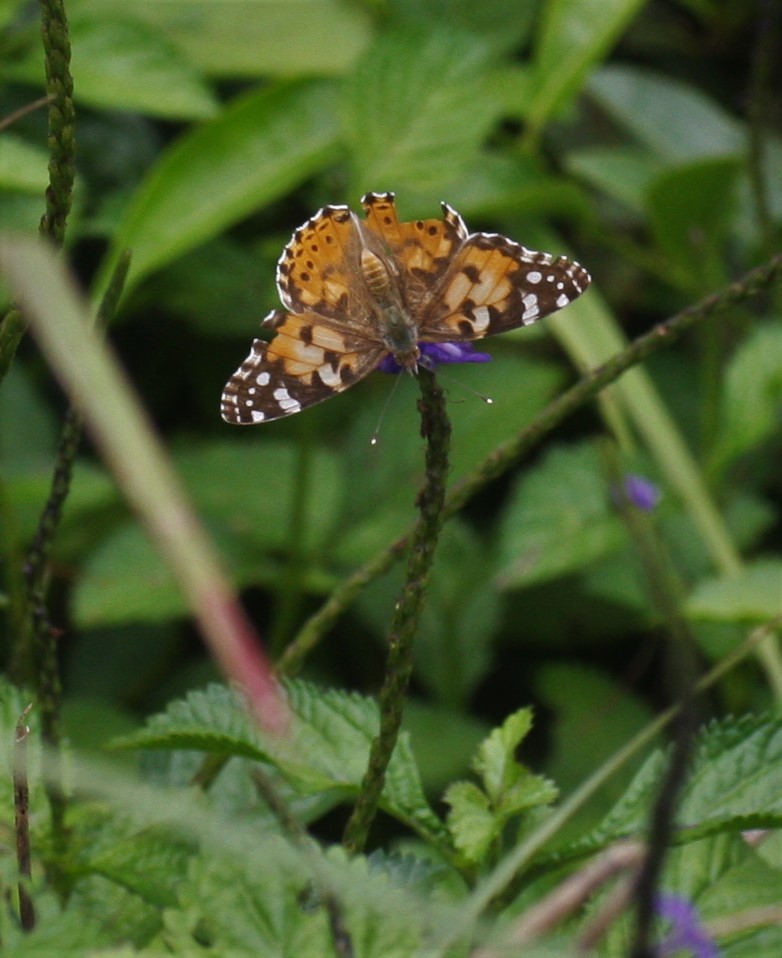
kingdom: Animalia
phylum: Arthropoda
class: Insecta
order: Lepidoptera
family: Nymphalidae
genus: Vanessa
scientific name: Vanessa cardui
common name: Painted lady
